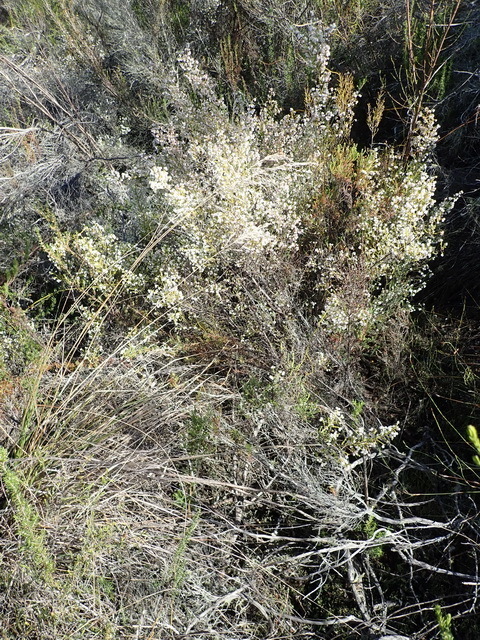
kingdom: Plantae
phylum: Tracheophyta
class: Magnoliopsida
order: Ericales
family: Ericaceae
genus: Erica
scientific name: Erica formosa
